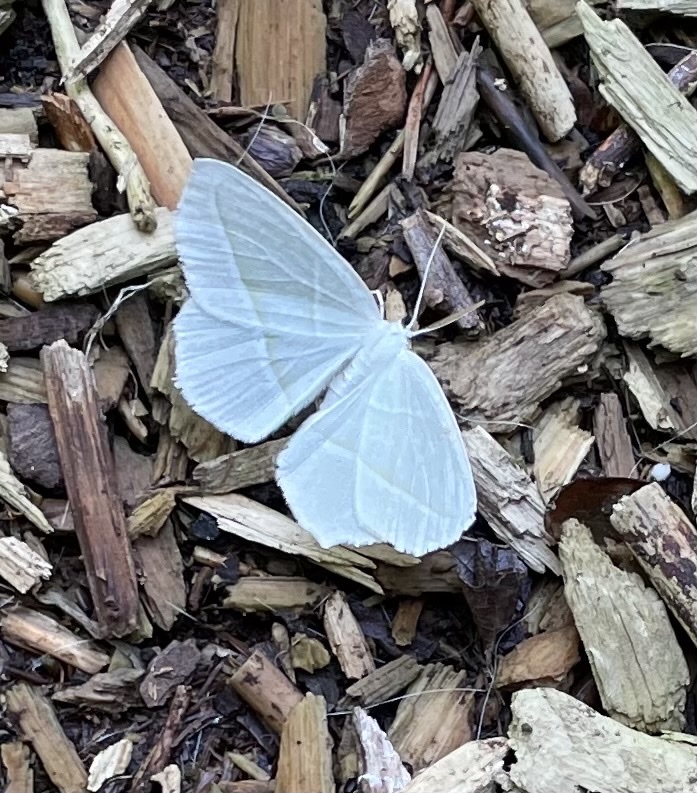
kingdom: Animalia
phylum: Arthropoda
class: Insecta
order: Lepidoptera
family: Geometridae
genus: Campaea
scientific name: Campaea perlata
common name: Fringed looper
